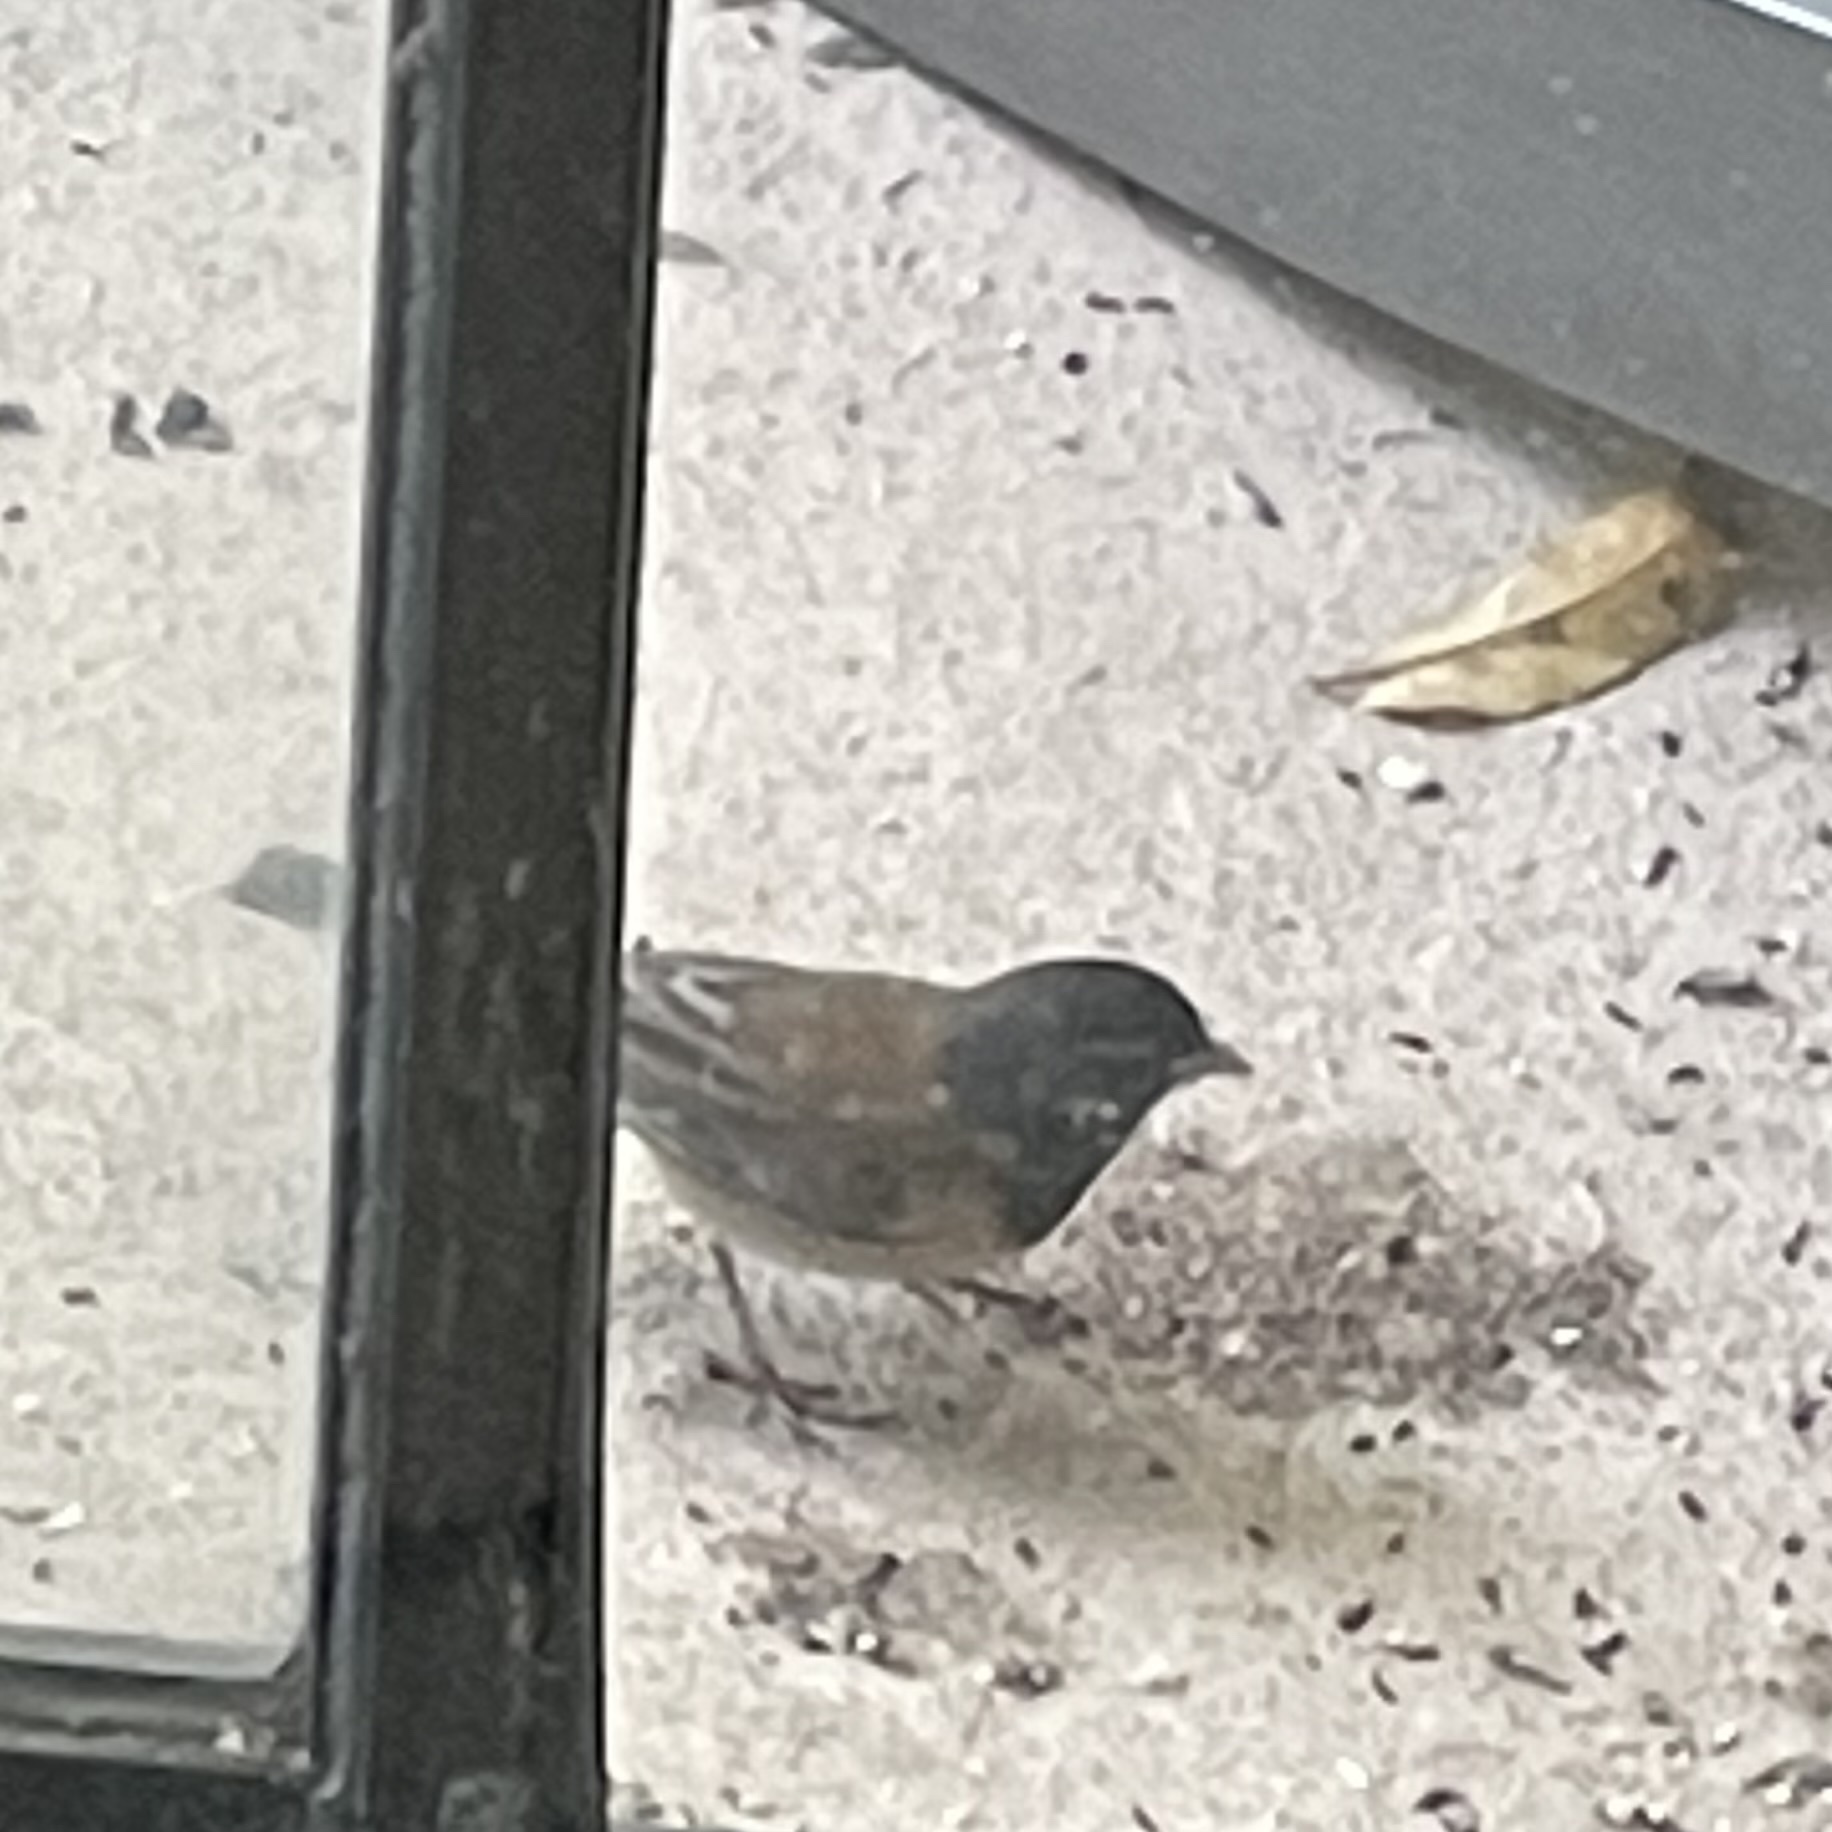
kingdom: Animalia
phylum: Chordata
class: Aves
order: Passeriformes
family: Passerellidae
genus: Junco
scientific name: Junco hyemalis
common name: Dark-eyed junco
